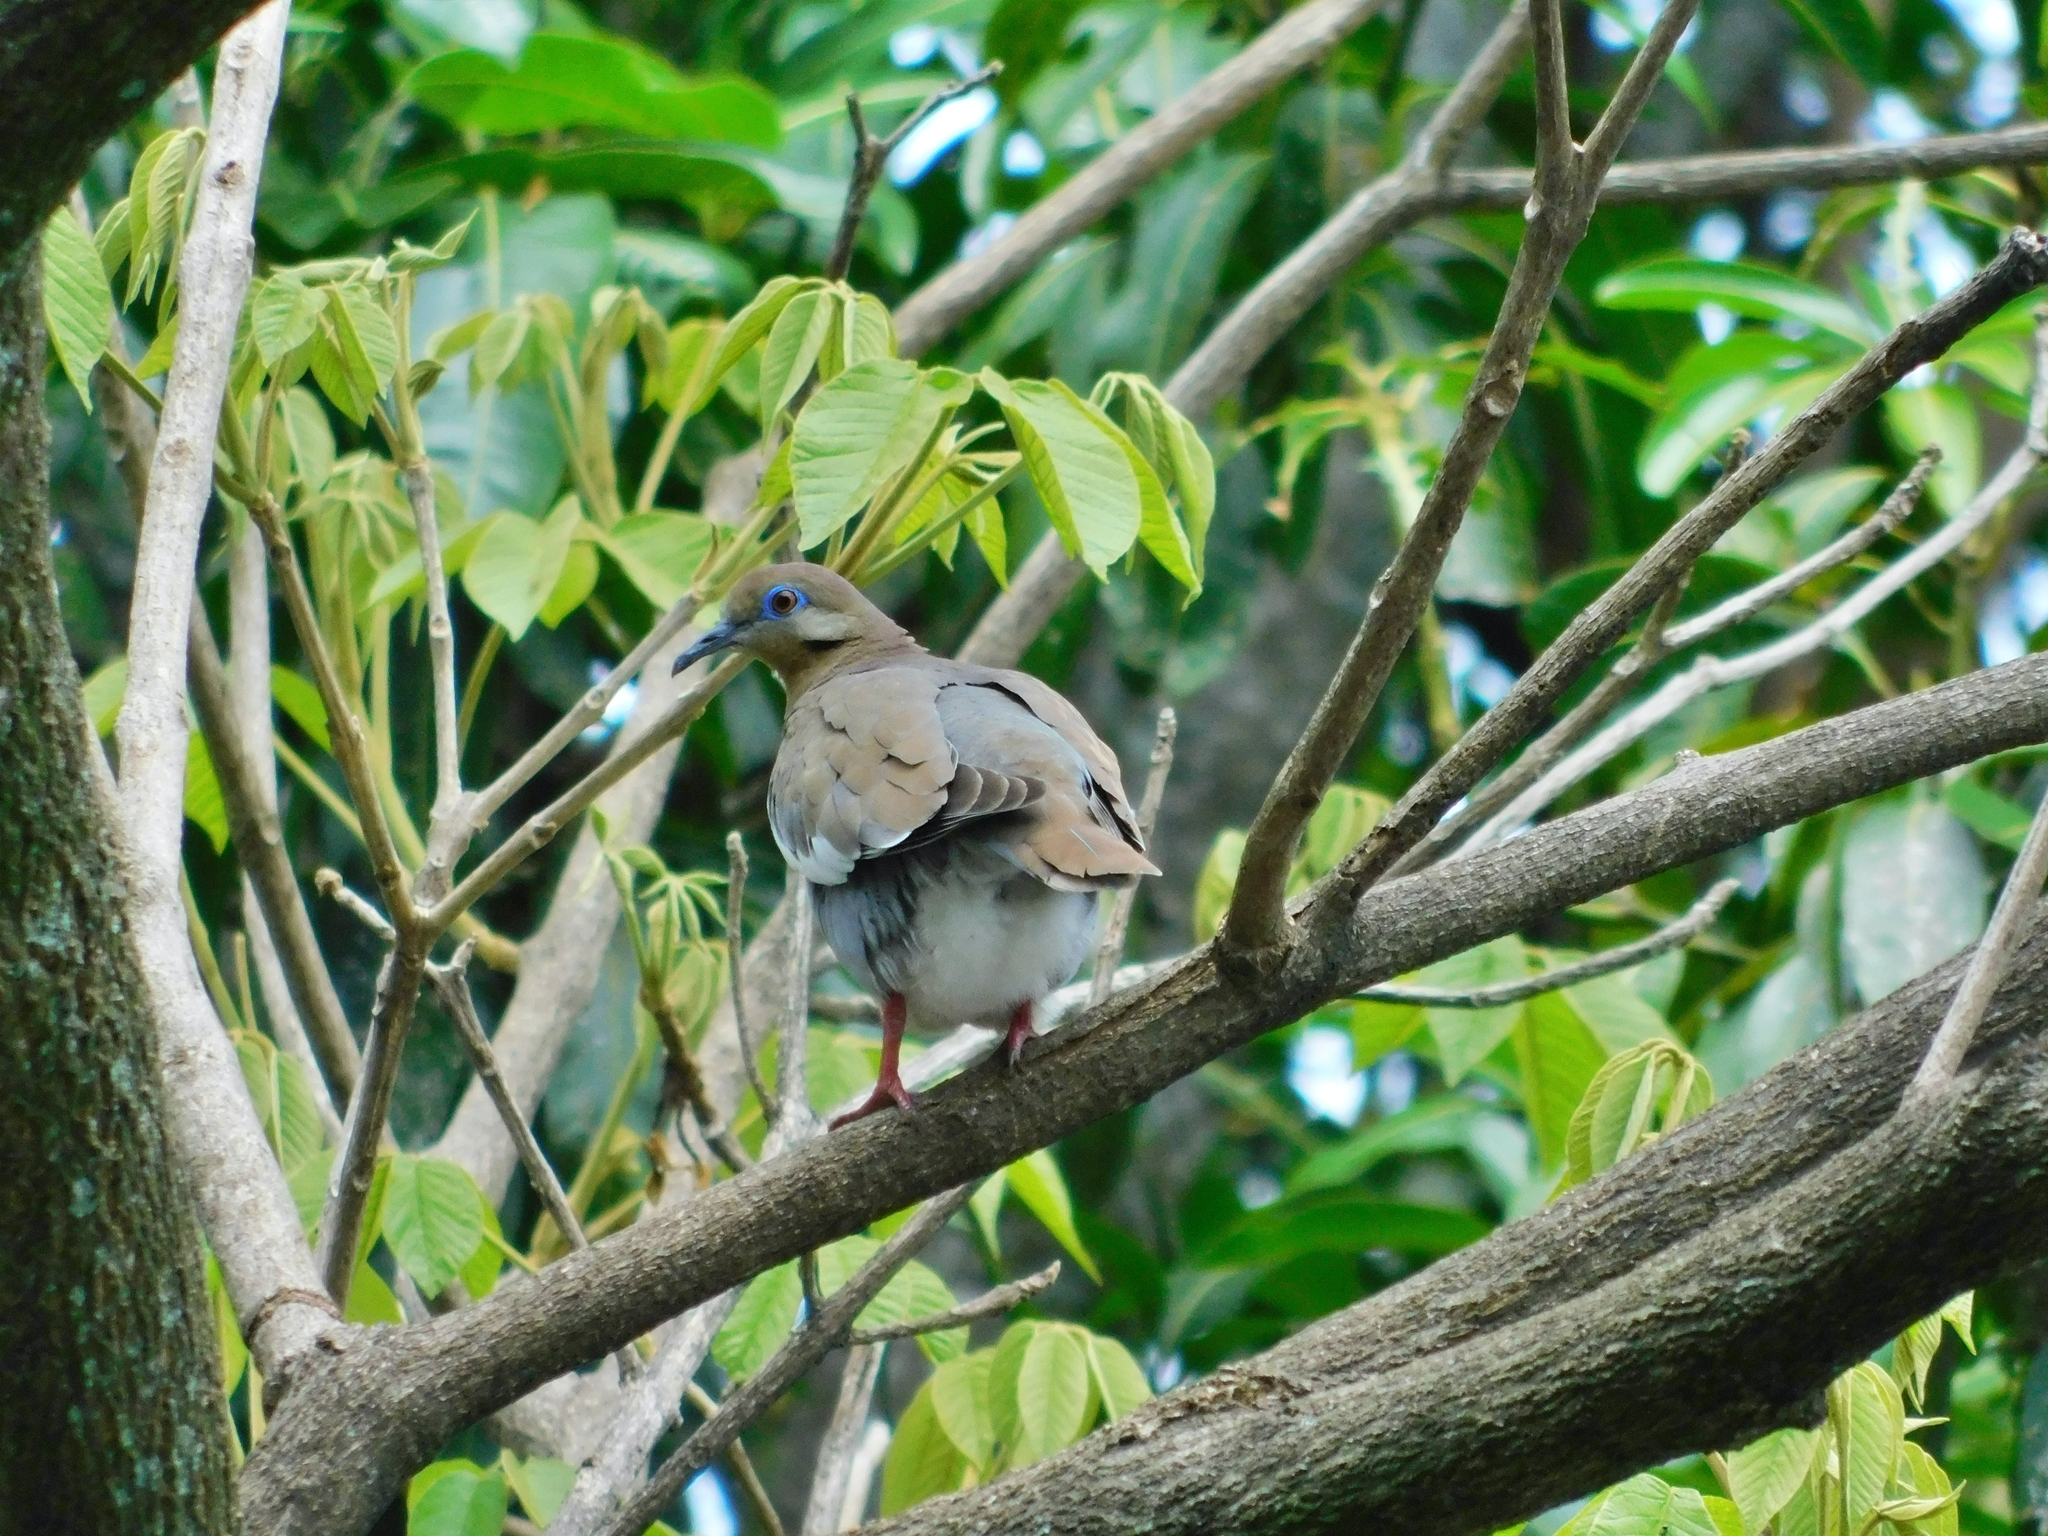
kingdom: Animalia
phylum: Chordata
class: Aves
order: Columbiformes
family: Columbidae
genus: Zenaida
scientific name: Zenaida asiatica
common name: White-winged dove
